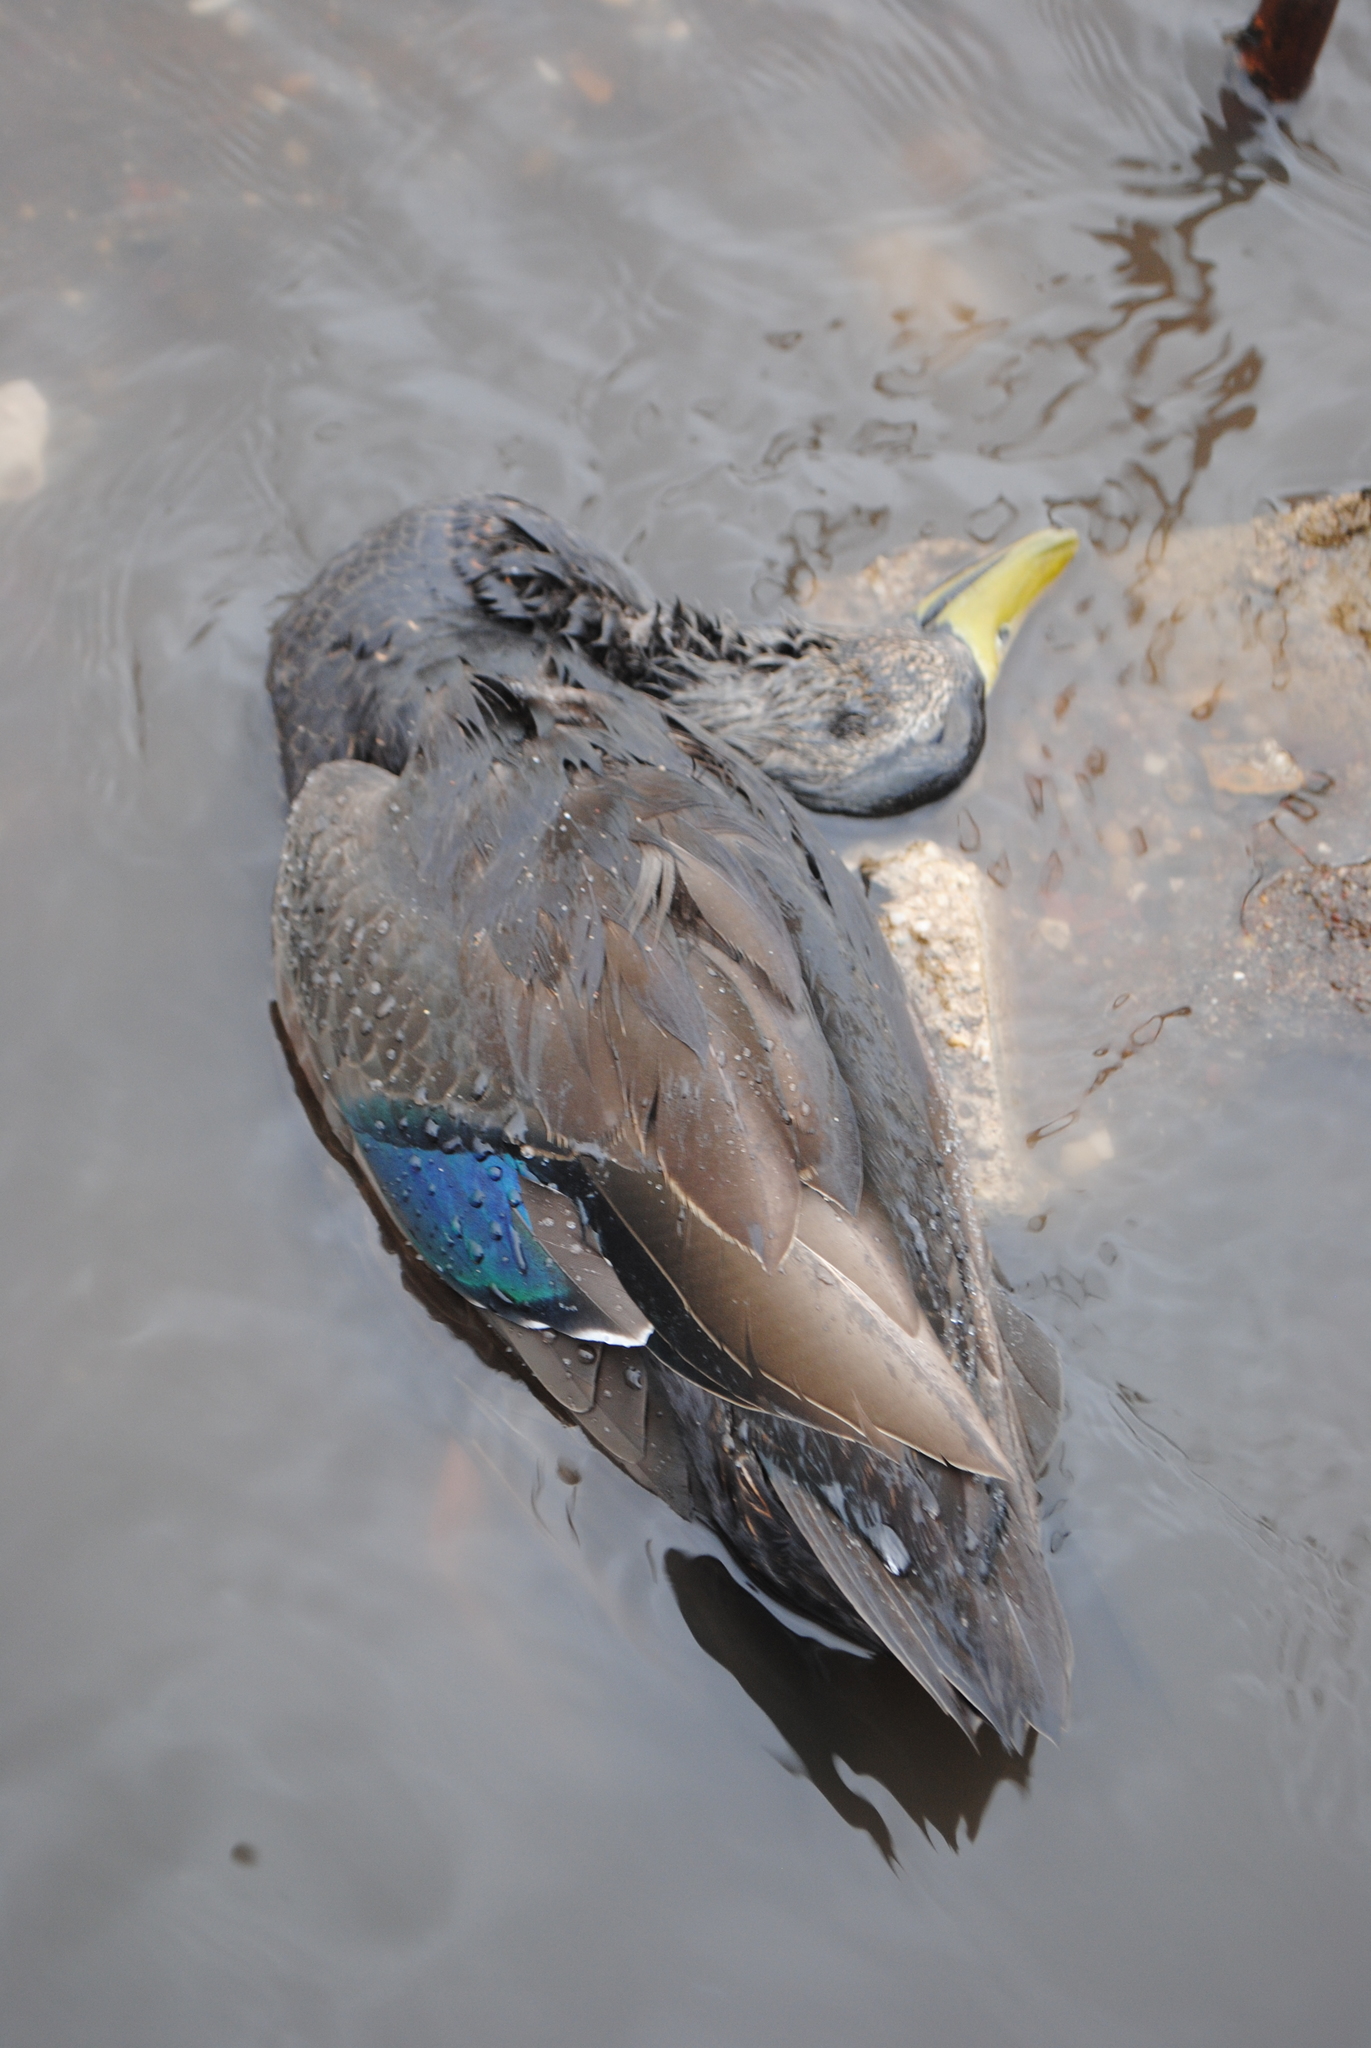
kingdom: Animalia
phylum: Chordata
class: Aves
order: Anseriformes
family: Anatidae
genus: Anas
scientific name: Anas rubripes
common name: American black duck
